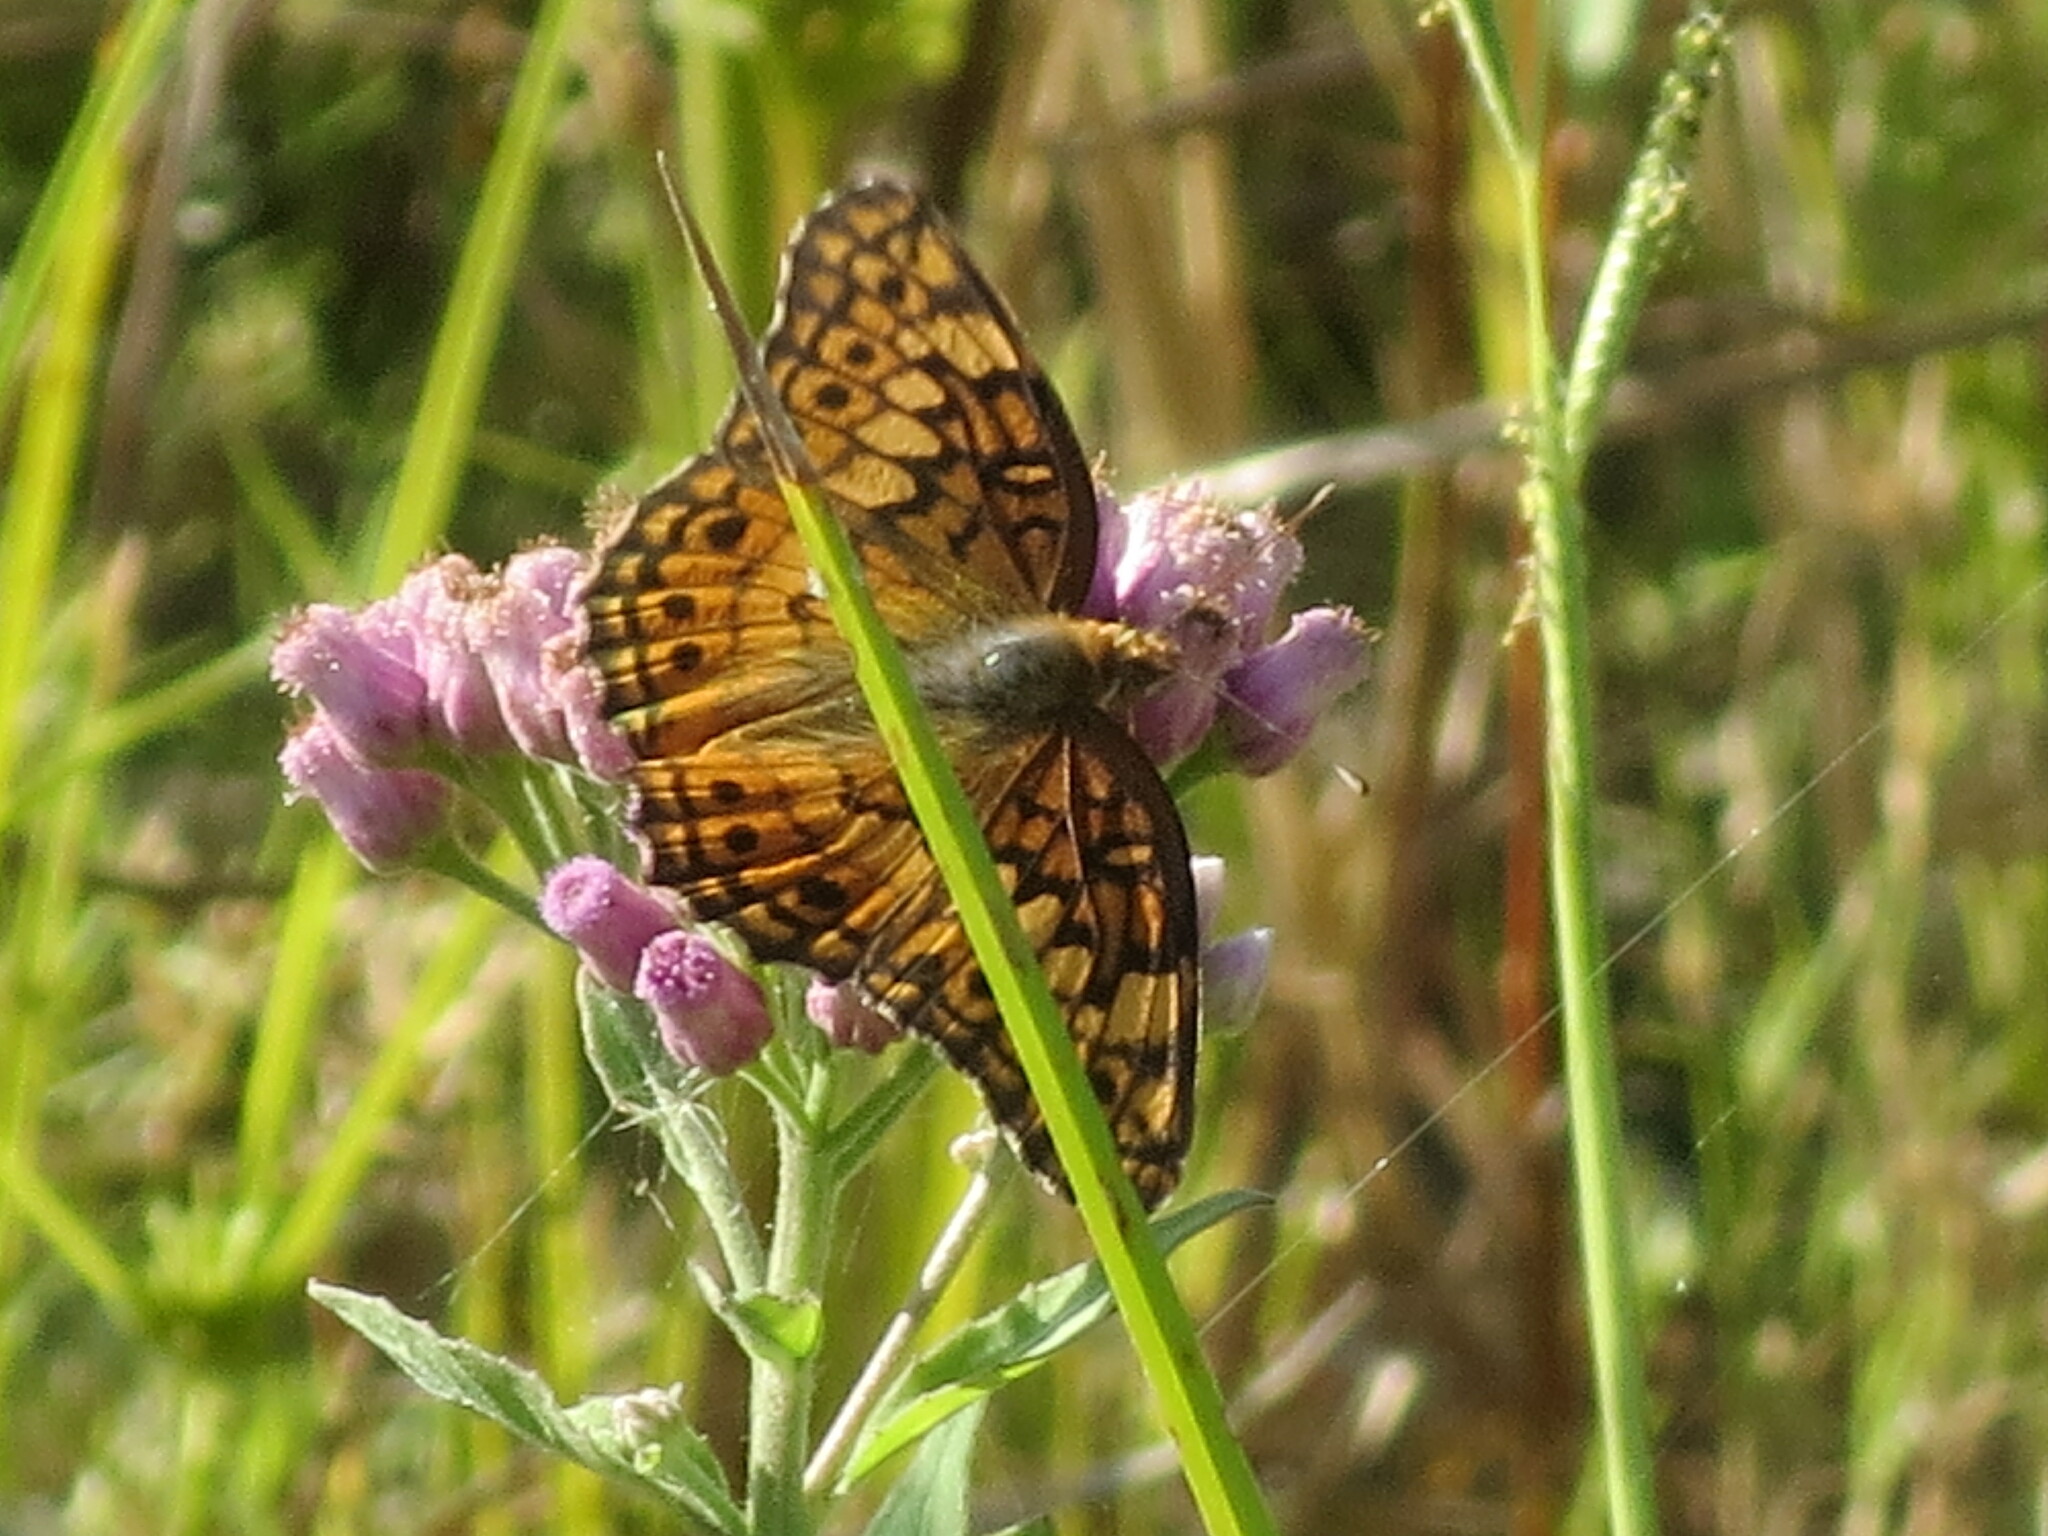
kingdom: Animalia
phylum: Arthropoda
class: Insecta
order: Lepidoptera
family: Nymphalidae
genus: Euptoieta
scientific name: Euptoieta claudia
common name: Variegated fritillary
